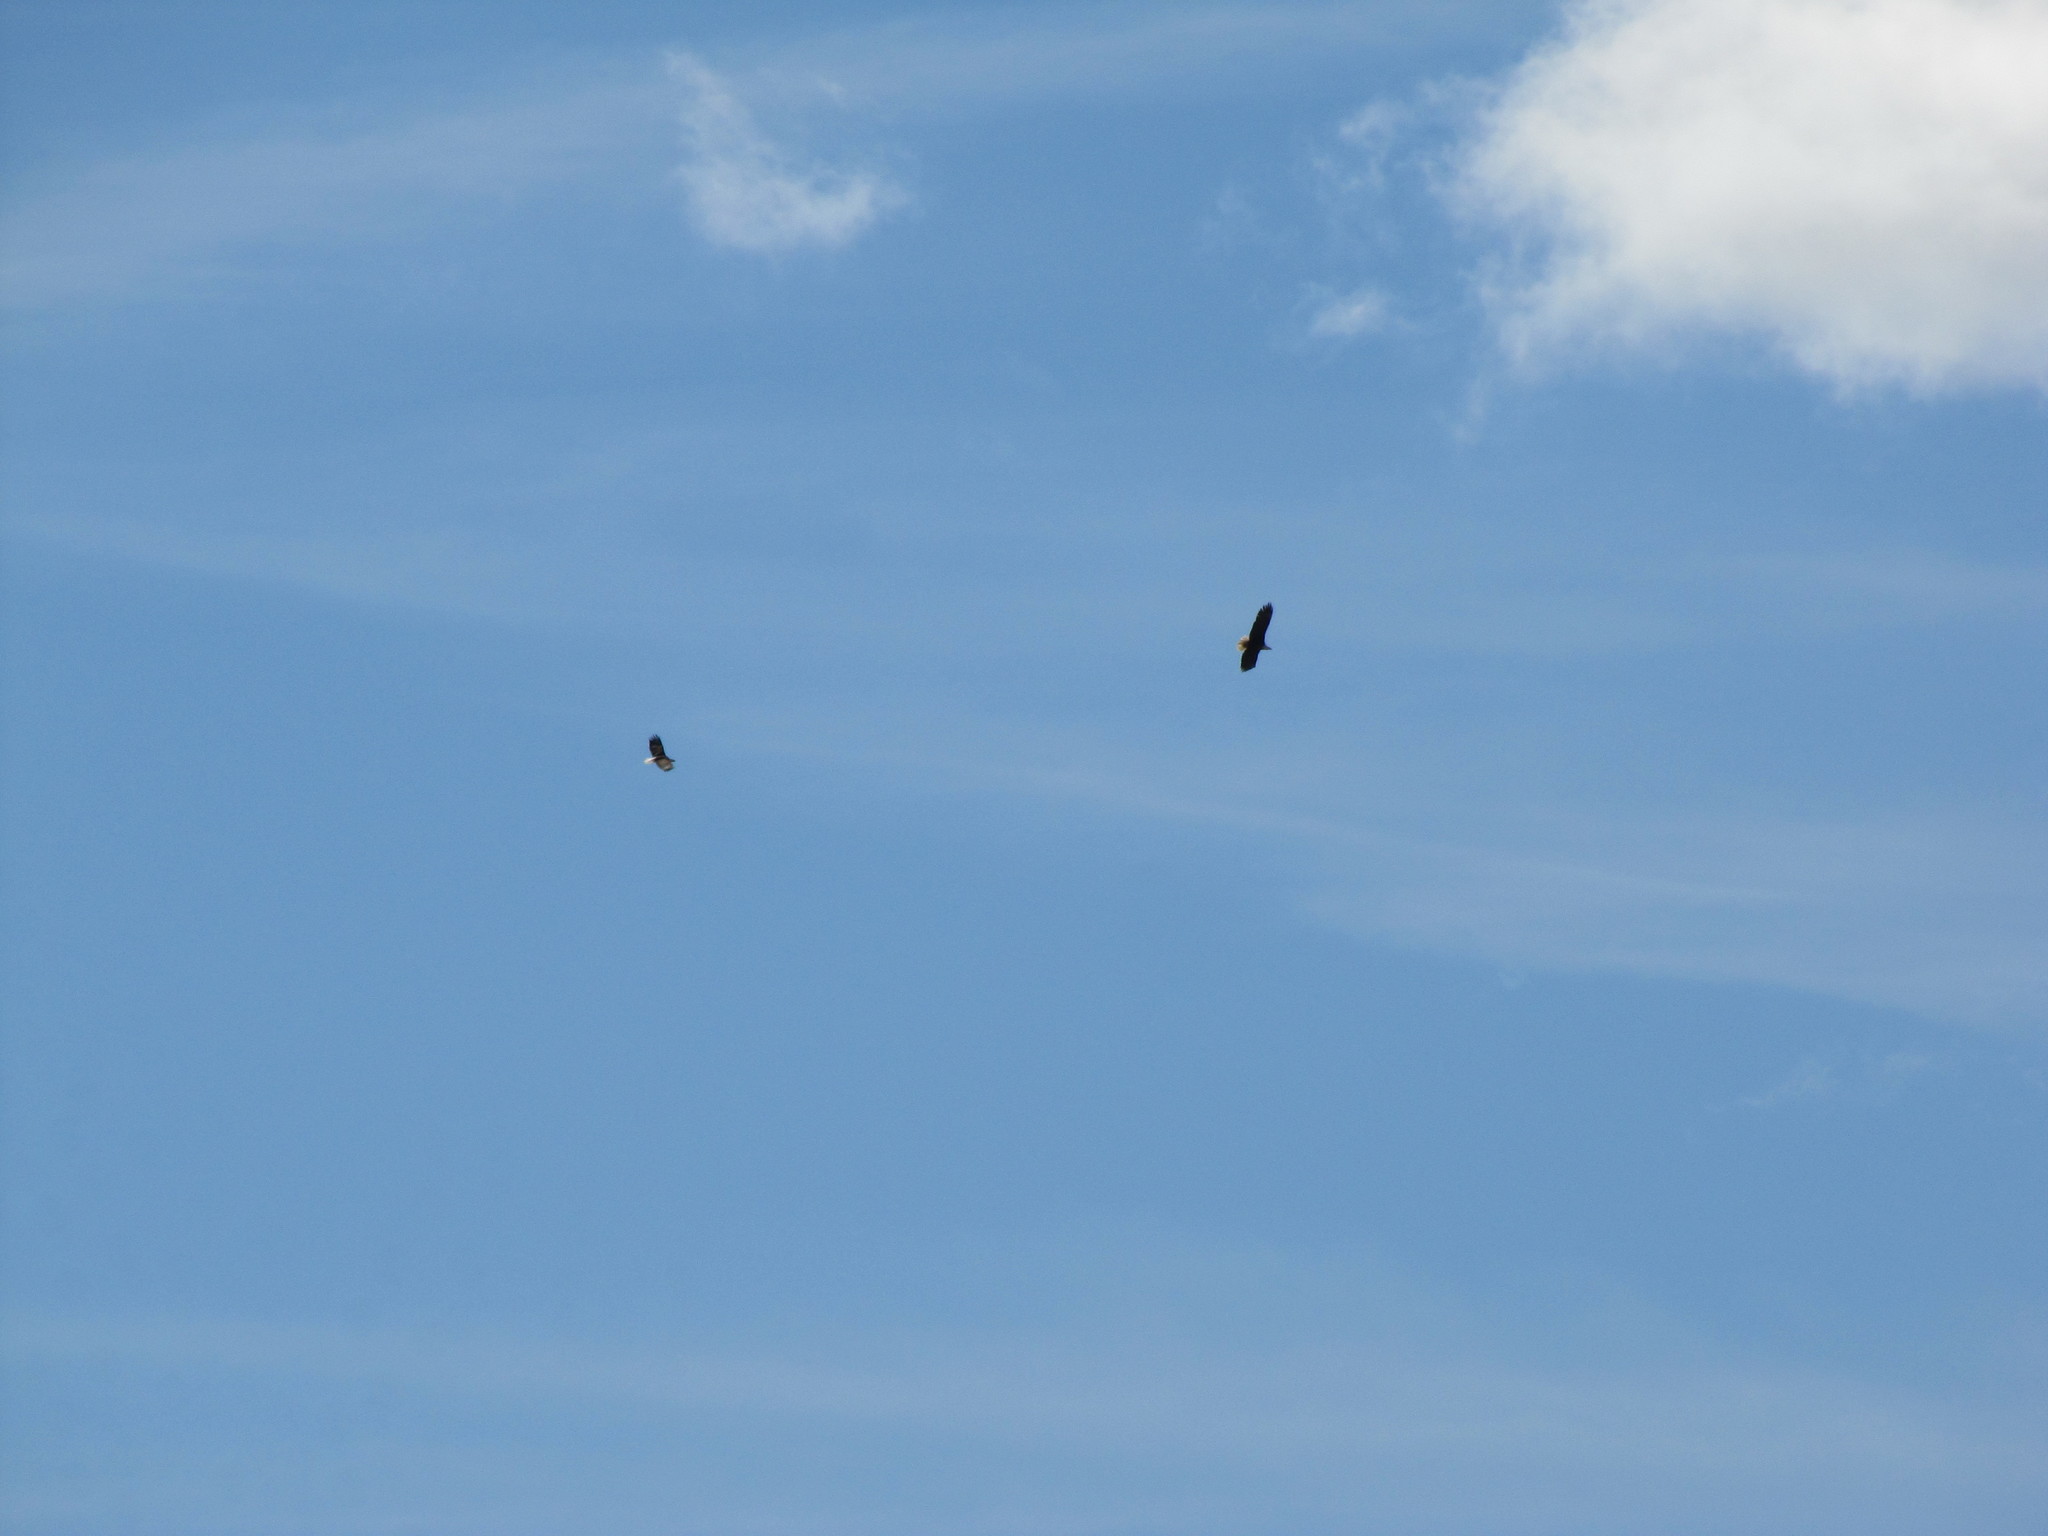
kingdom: Animalia
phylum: Chordata
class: Aves
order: Accipitriformes
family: Accipitridae
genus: Haliaeetus
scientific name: Haliaeetus leucocephalus
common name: Bald eagle
